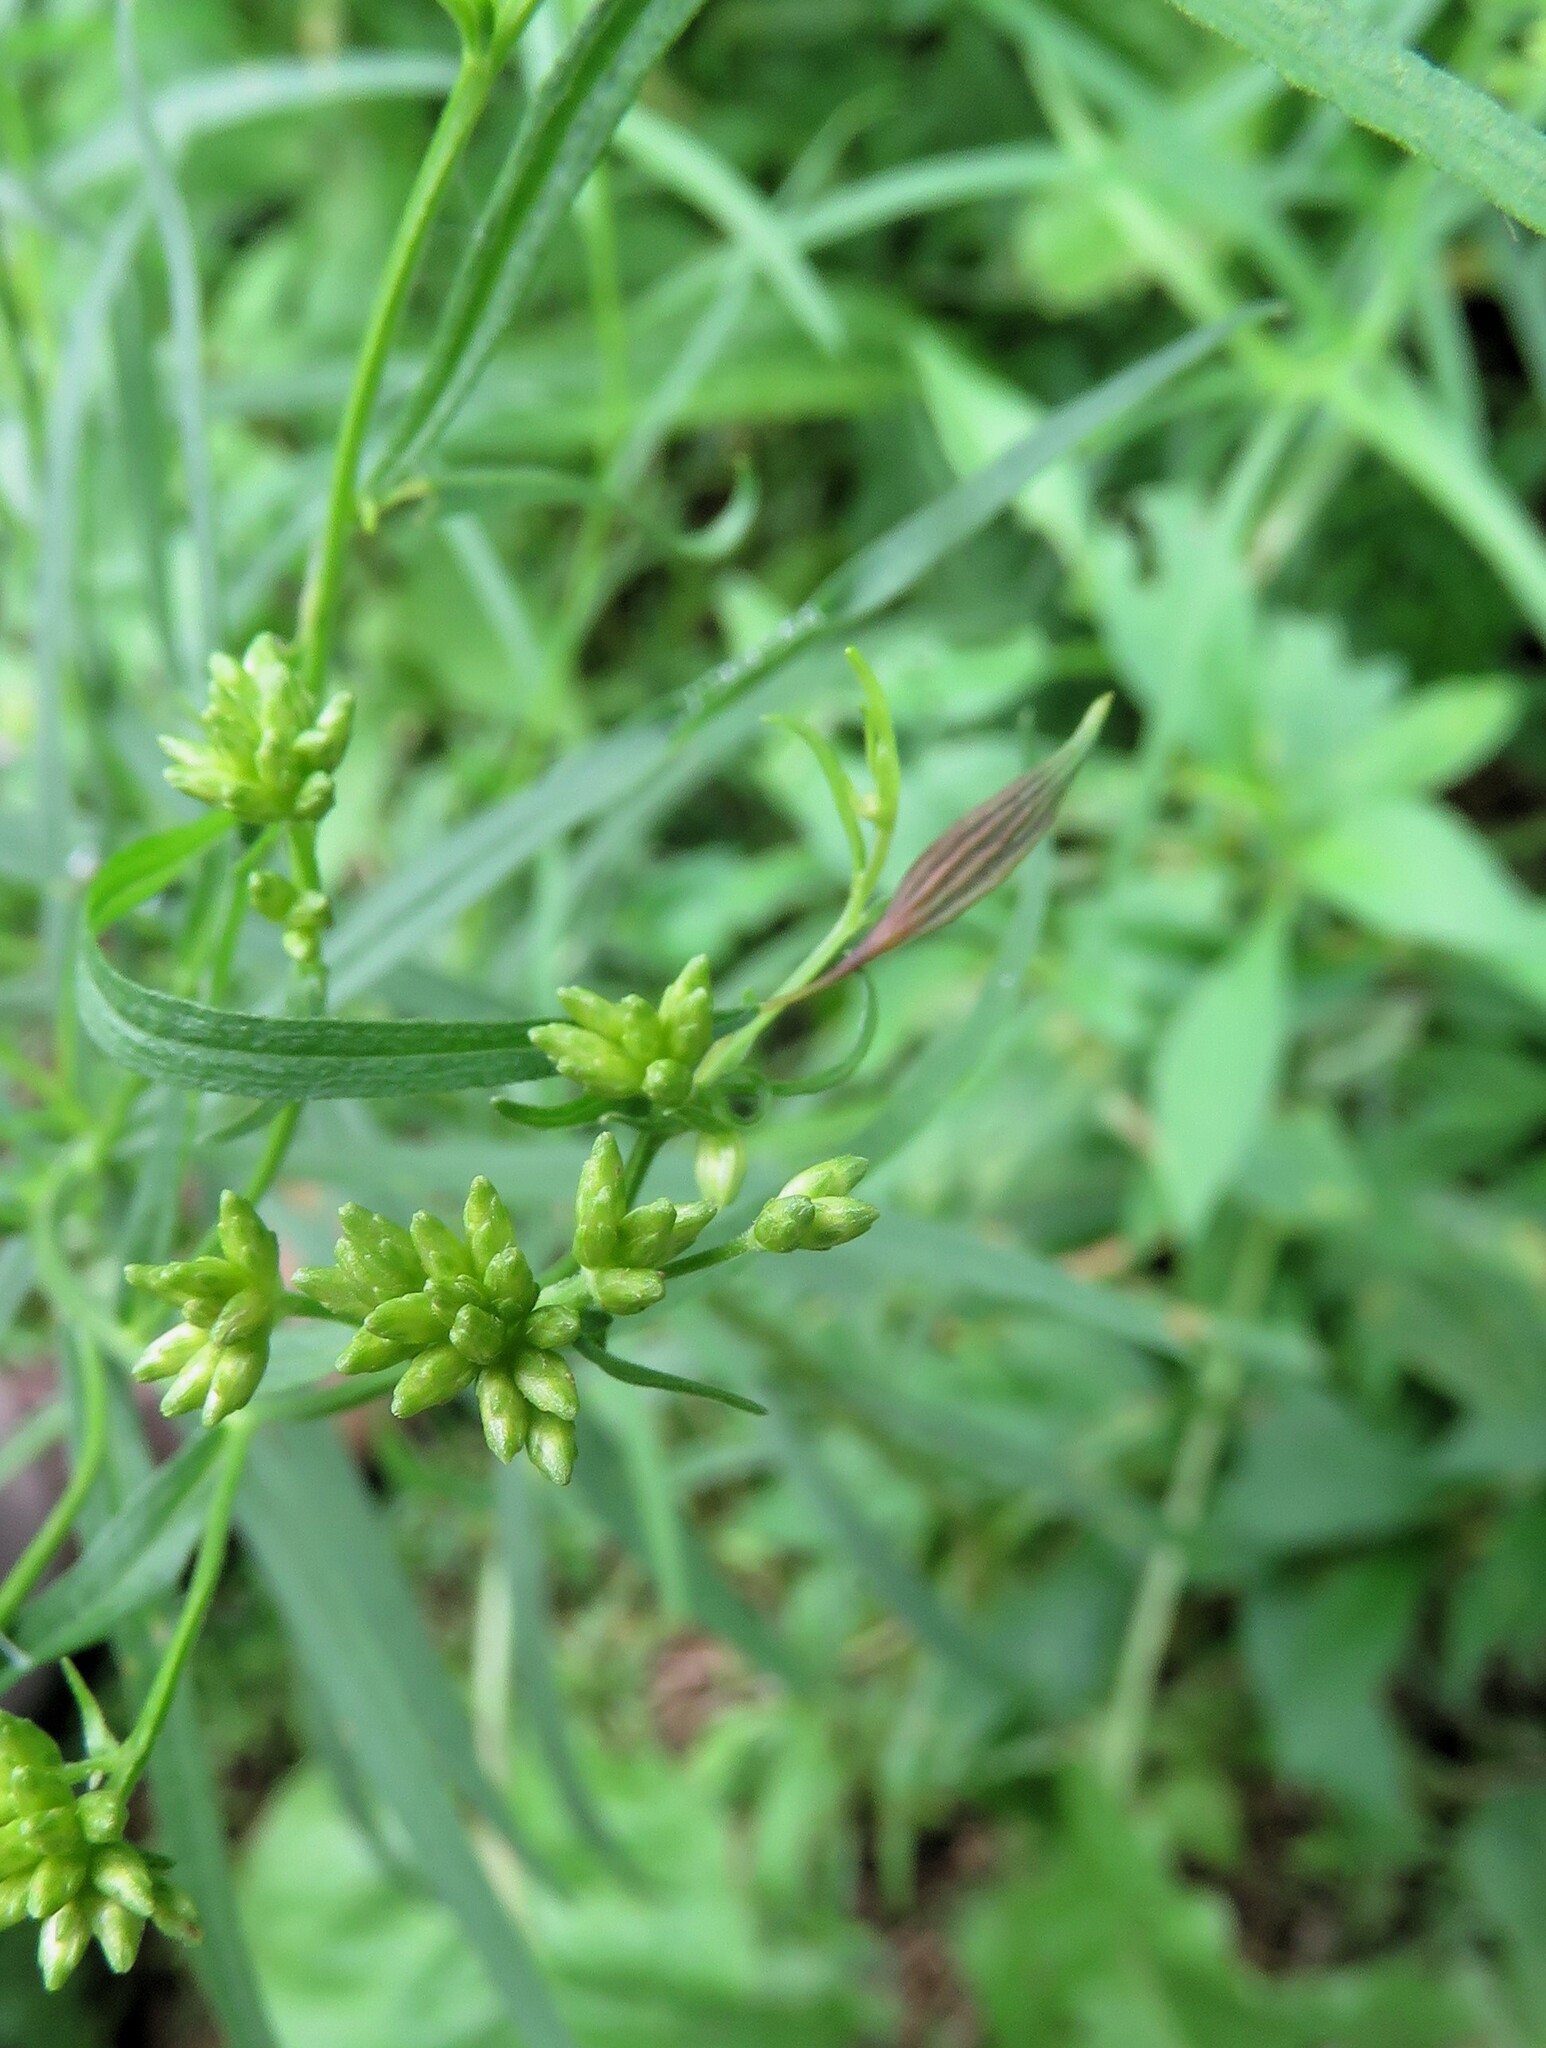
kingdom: Animalia
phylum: Arthropoda
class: Insecta
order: Diptera
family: Cecidomyiidae
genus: Rhopalomyia
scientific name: Rhopalomyia pedicellata
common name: Goldentop pedicellate gall midge
